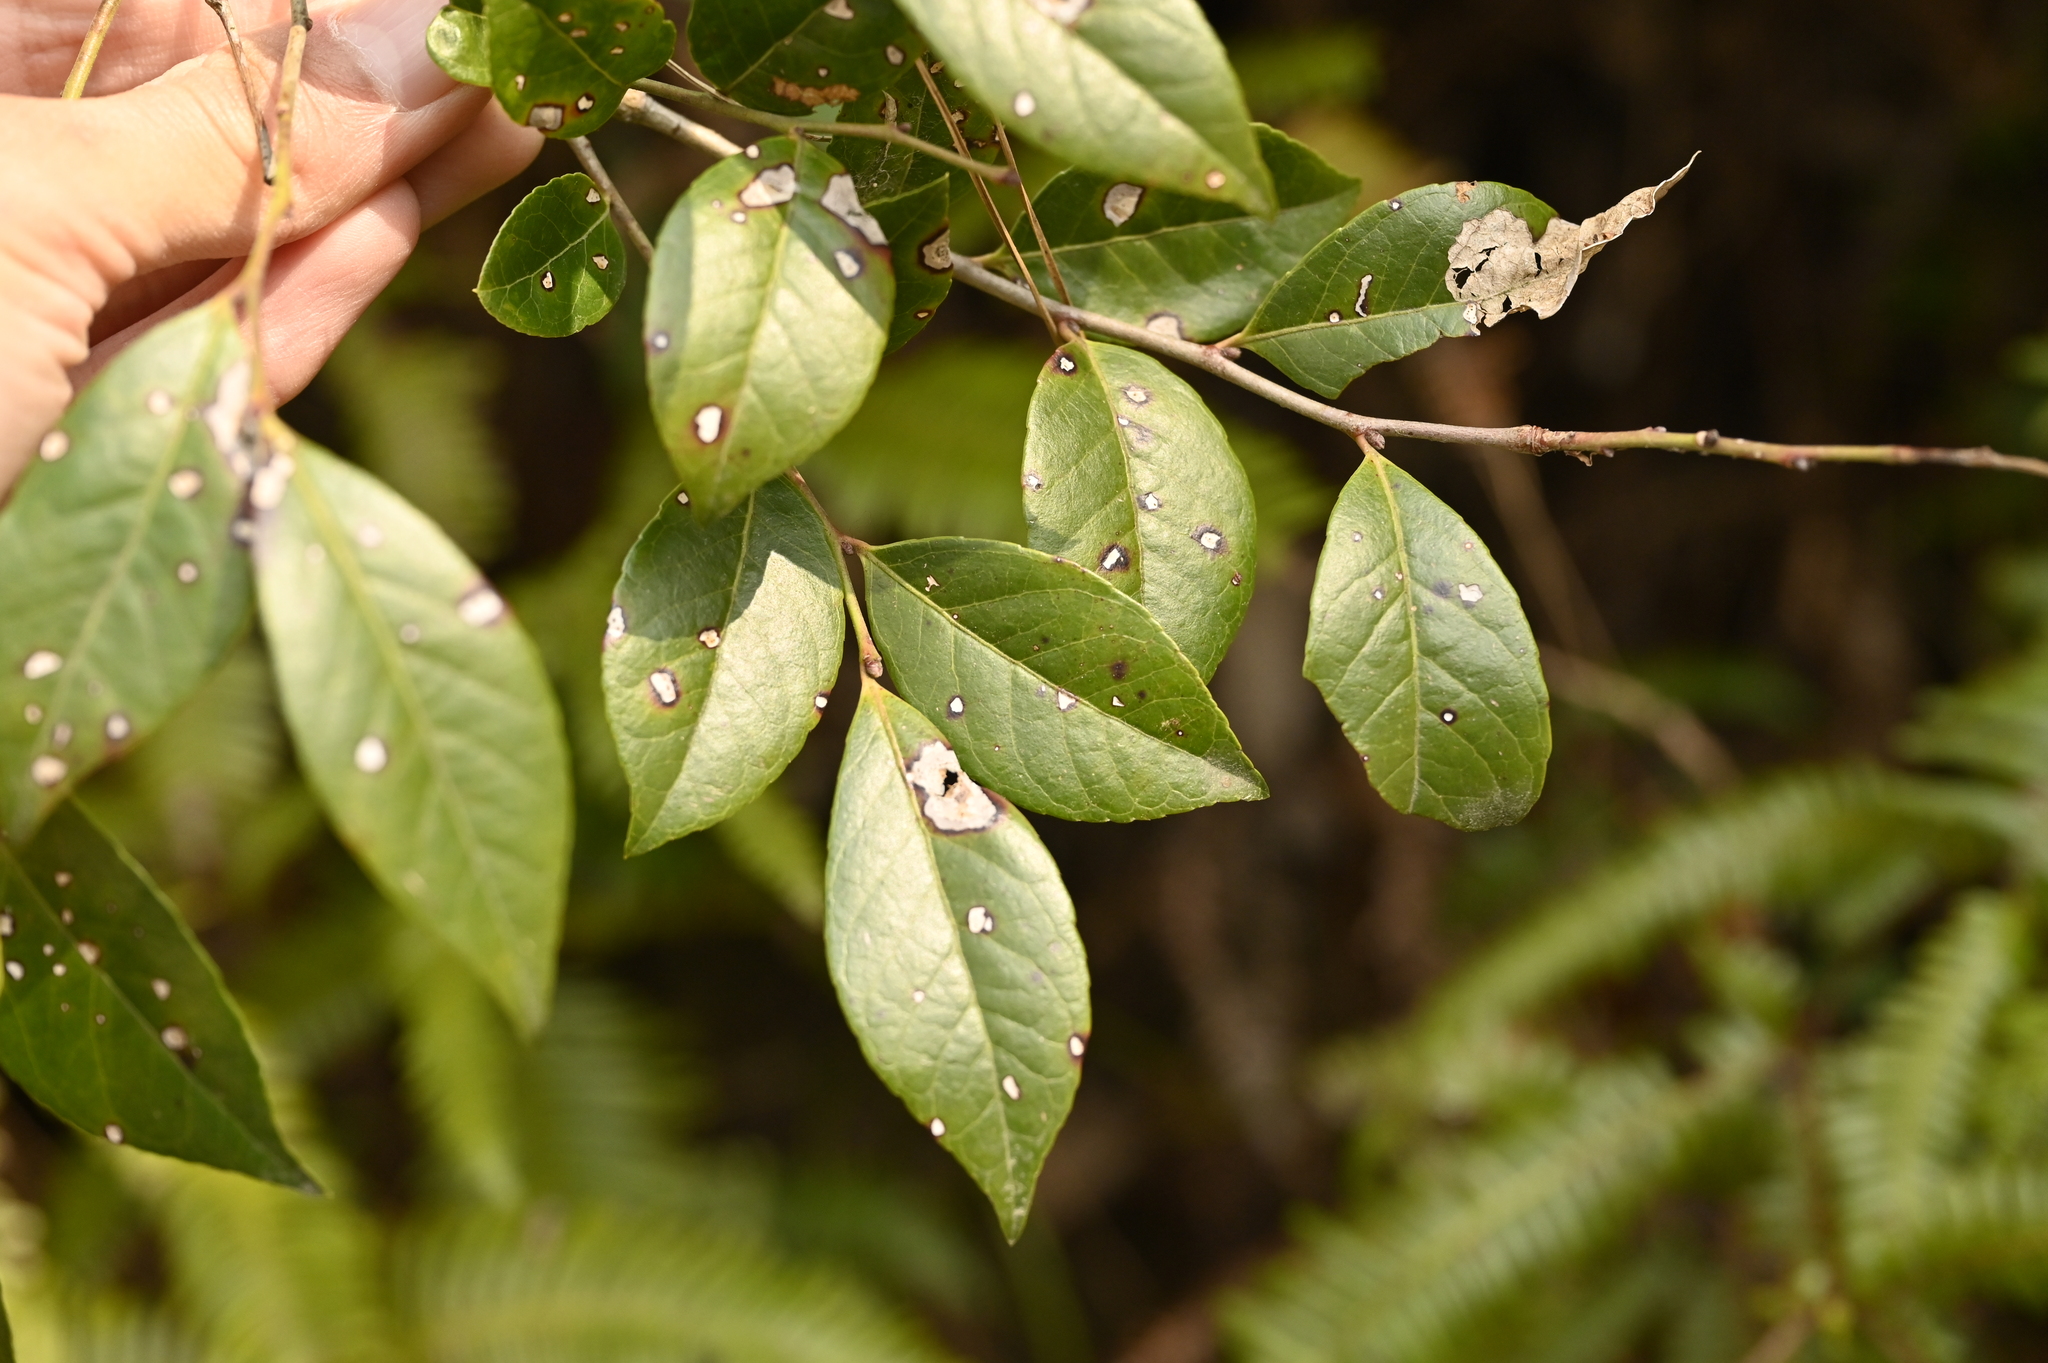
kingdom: Plantae
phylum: Tracheophyta
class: Magnoliopsida
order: Ericales
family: Ericaceae
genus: Vaccinium
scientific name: Vaccinium bracteatum
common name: Sea bilberry
